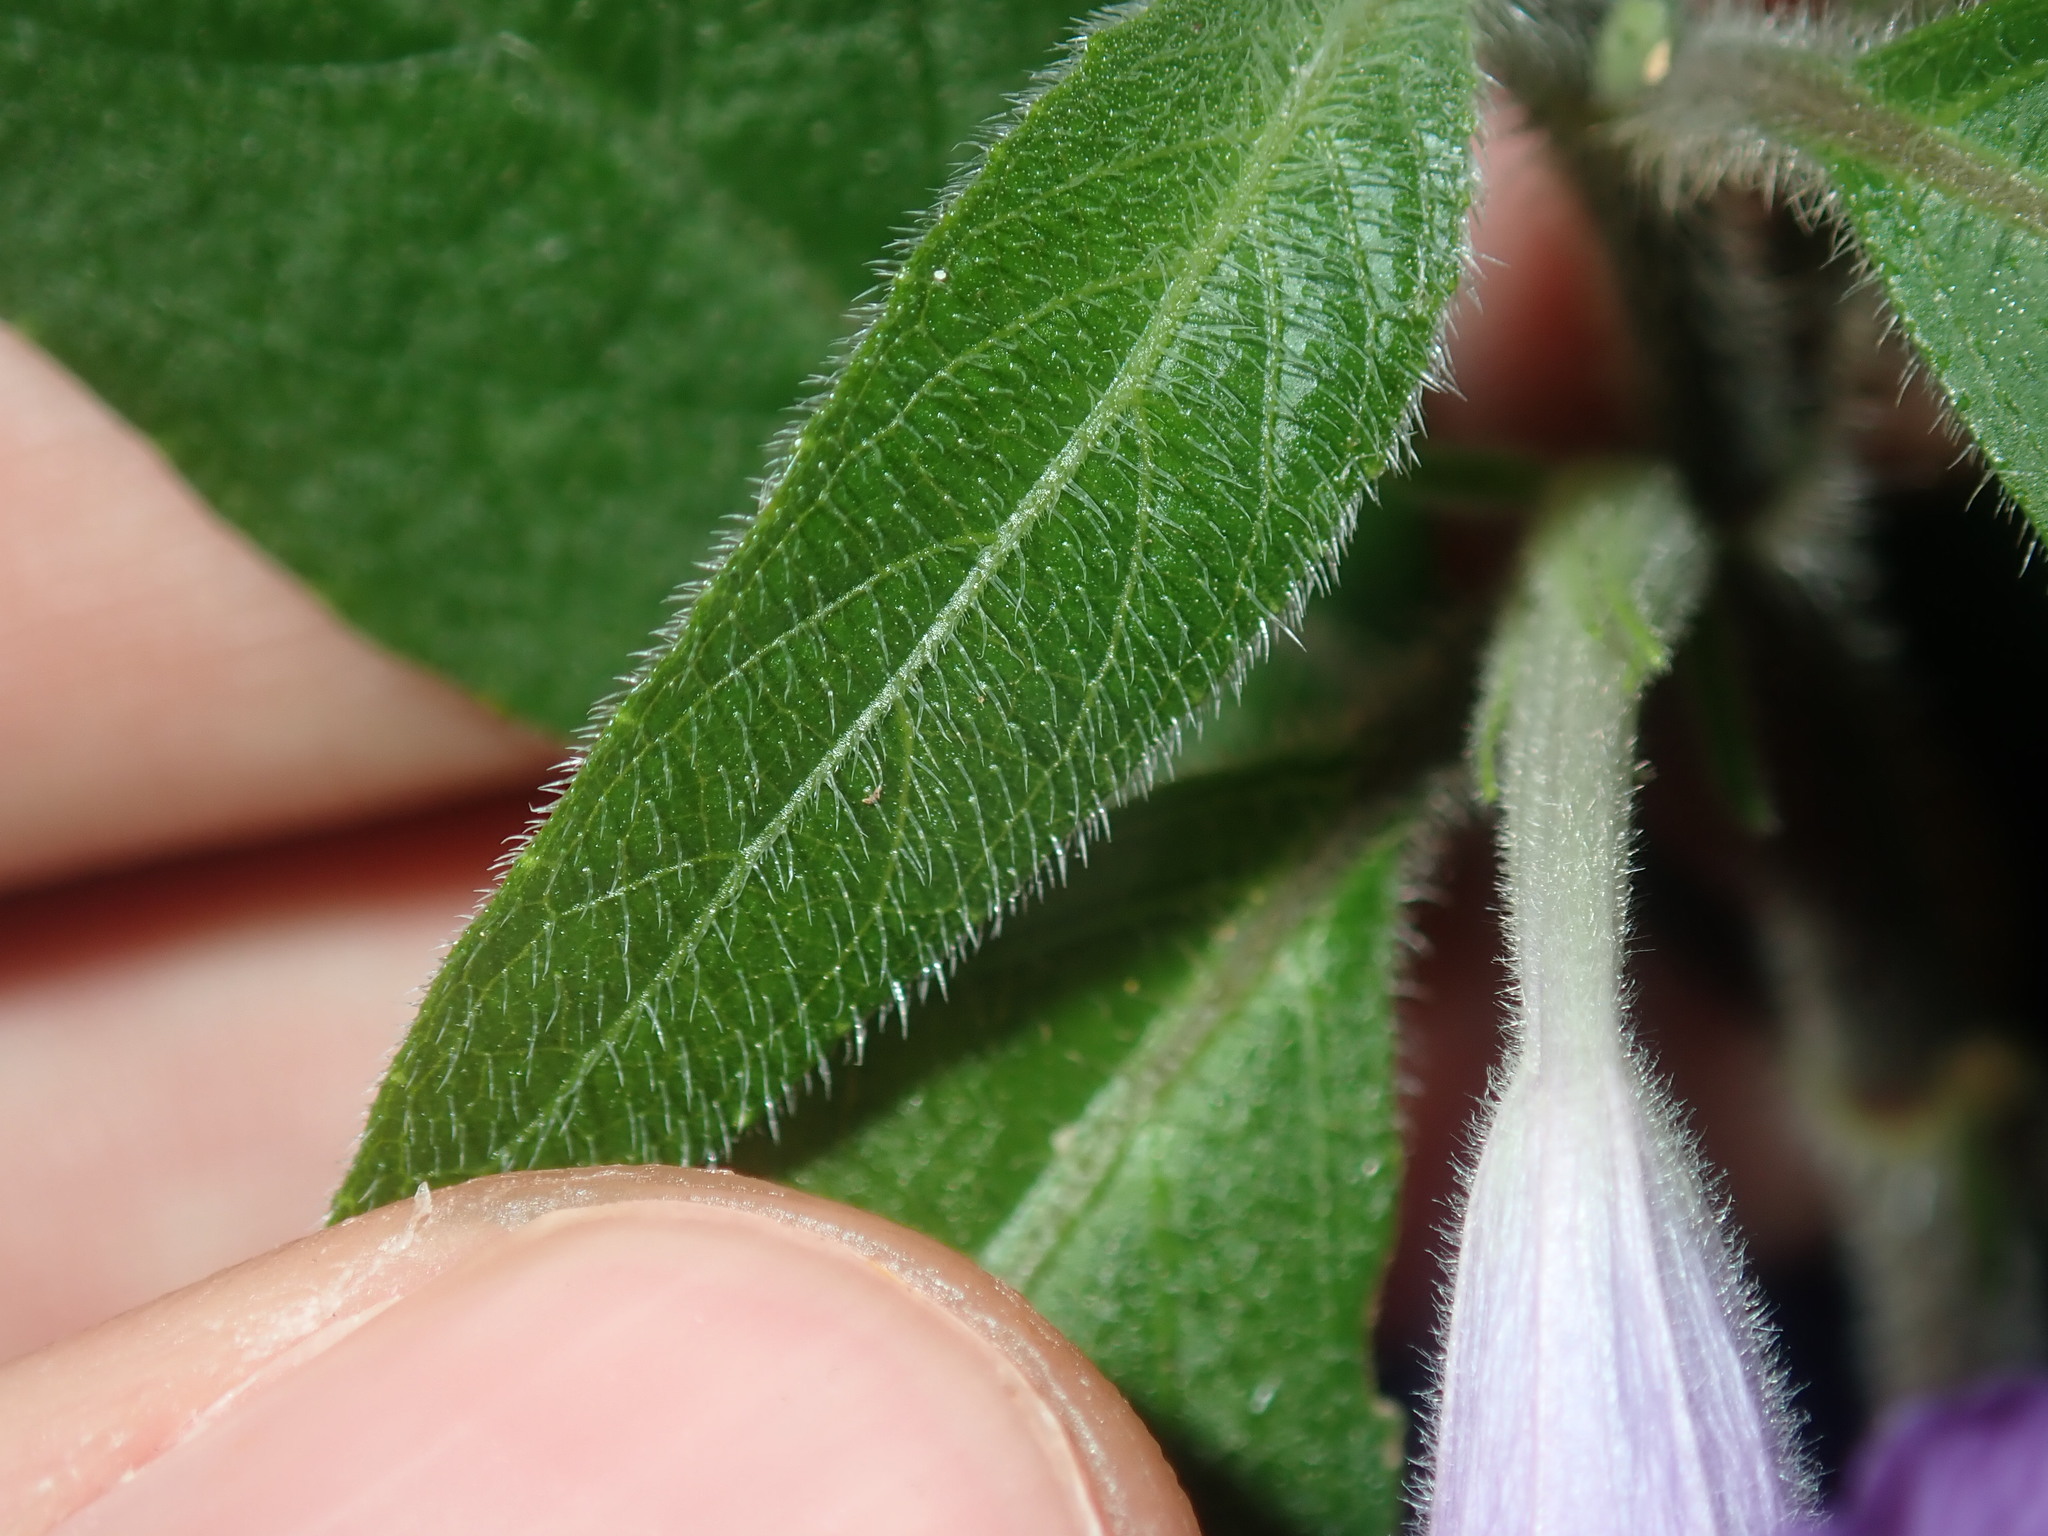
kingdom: Plantae
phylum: Tracheophyta
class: Magnoliopsida
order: Lamiales
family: Acanthaceae
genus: Ruellia
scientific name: Ruellia squarrosa
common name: Water bluebell
